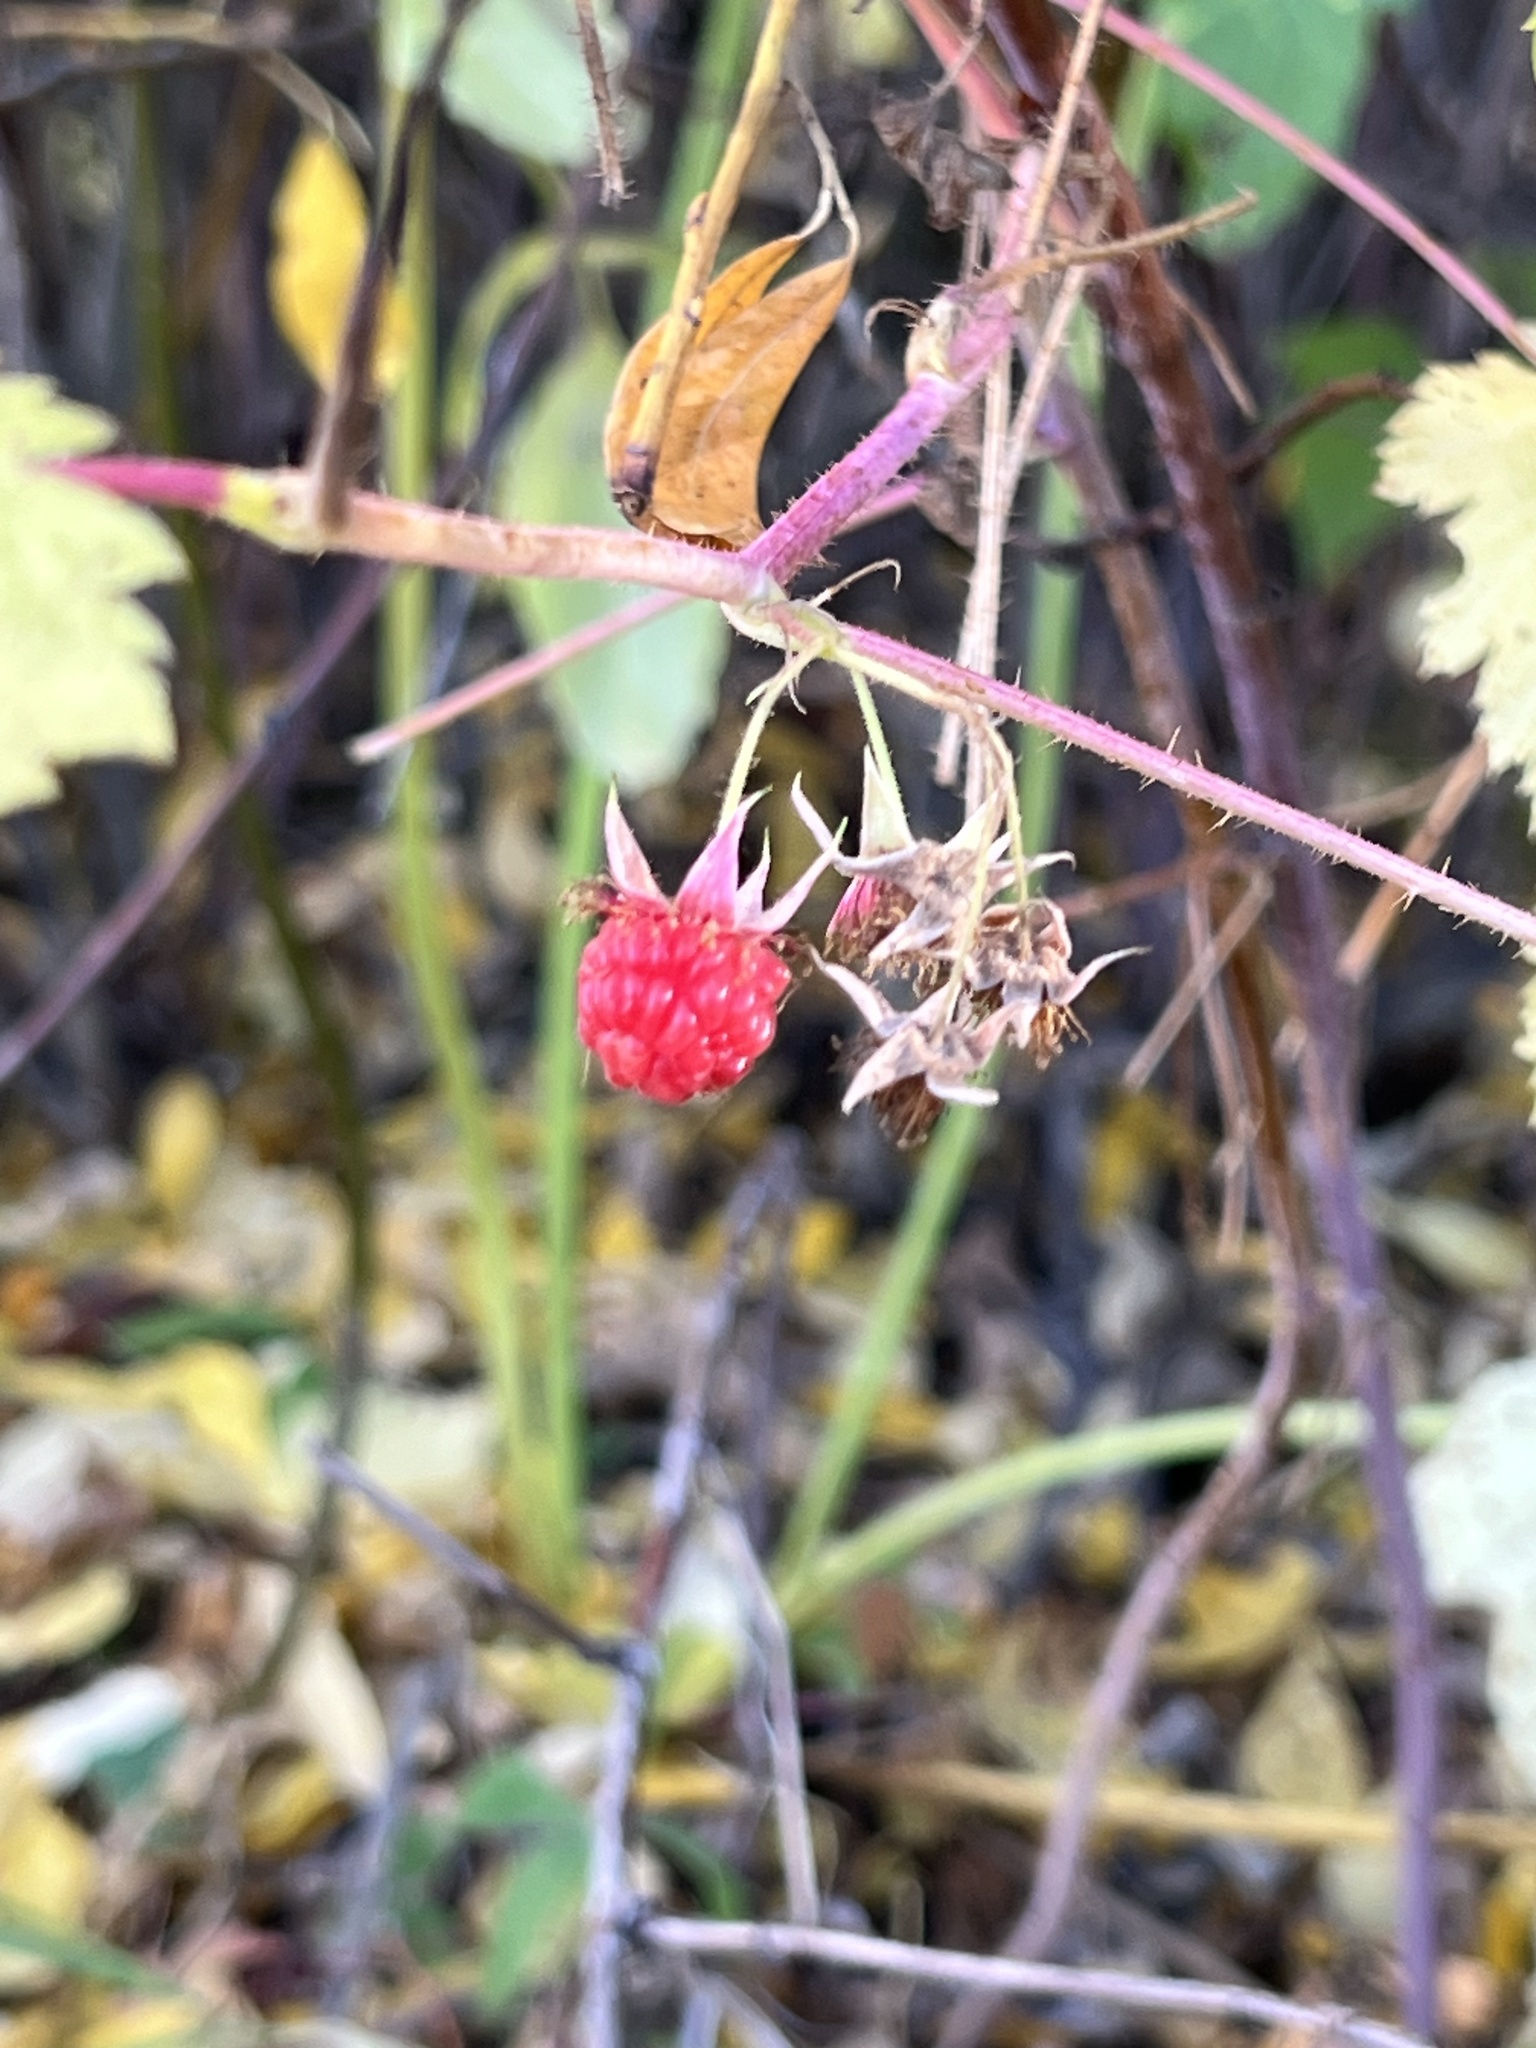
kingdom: Plantae
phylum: Tracheophyta
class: Magnoliopsida
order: Rosales
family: Rosaceae
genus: Rubus
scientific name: Rubus idaeus
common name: Raspberry
